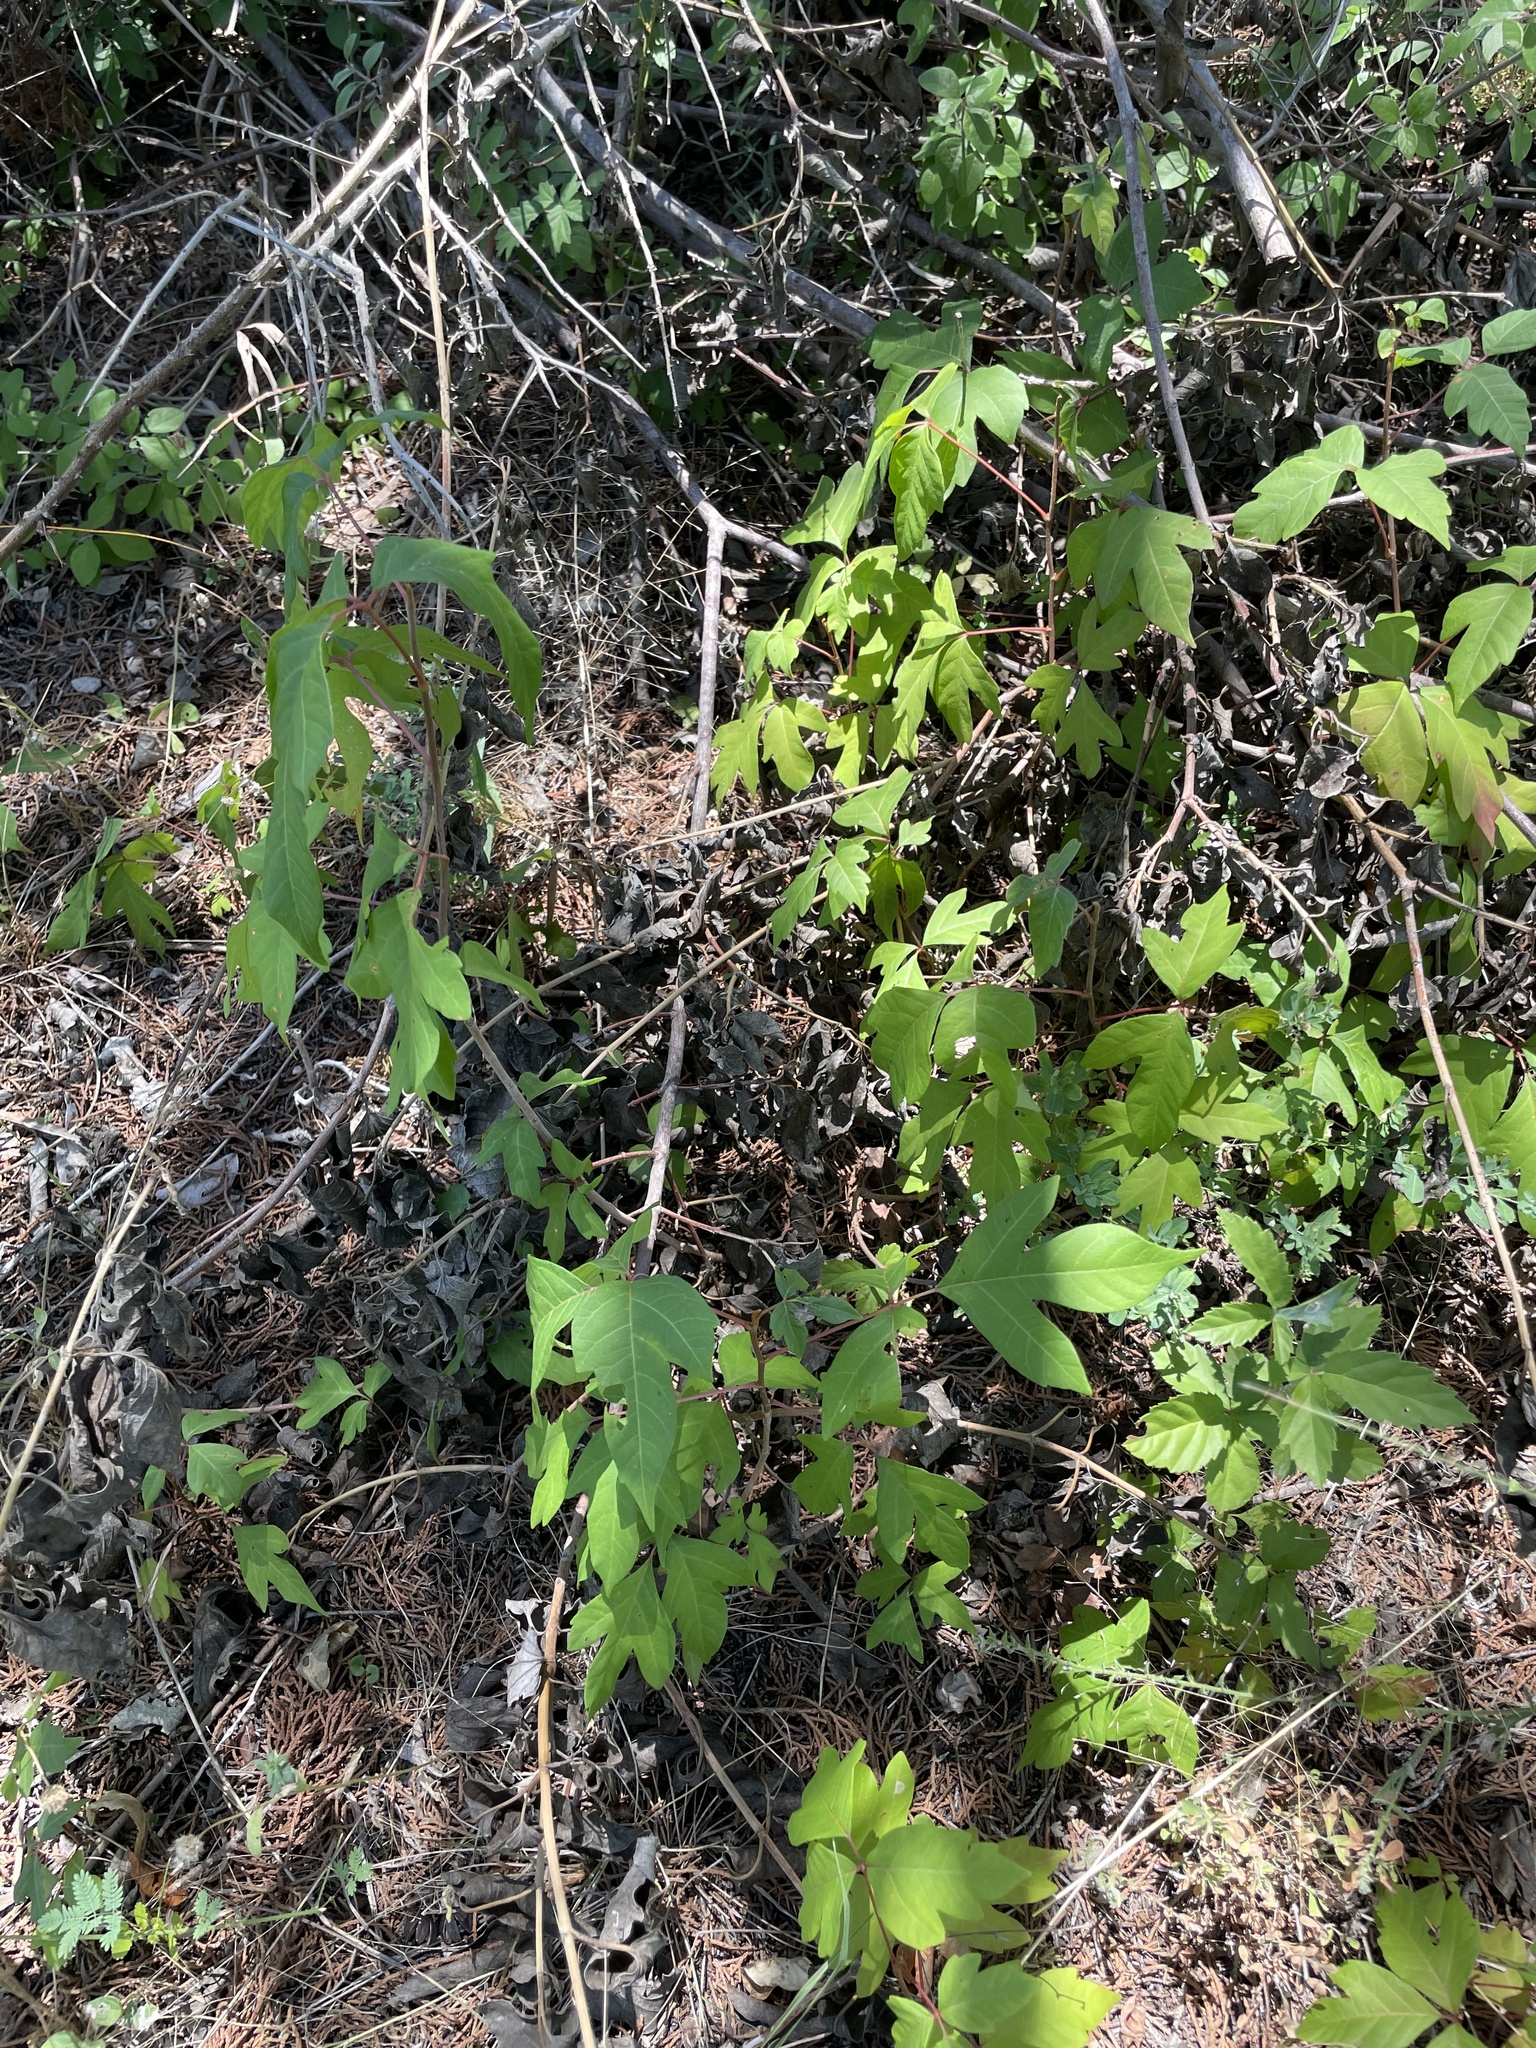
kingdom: Plantae
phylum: Tracheophyta
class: Magnoliopsida
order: Sapindales
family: Anacardiaceae
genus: Toxicodendron
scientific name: Toxicodendron radicans
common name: Poison ivy
